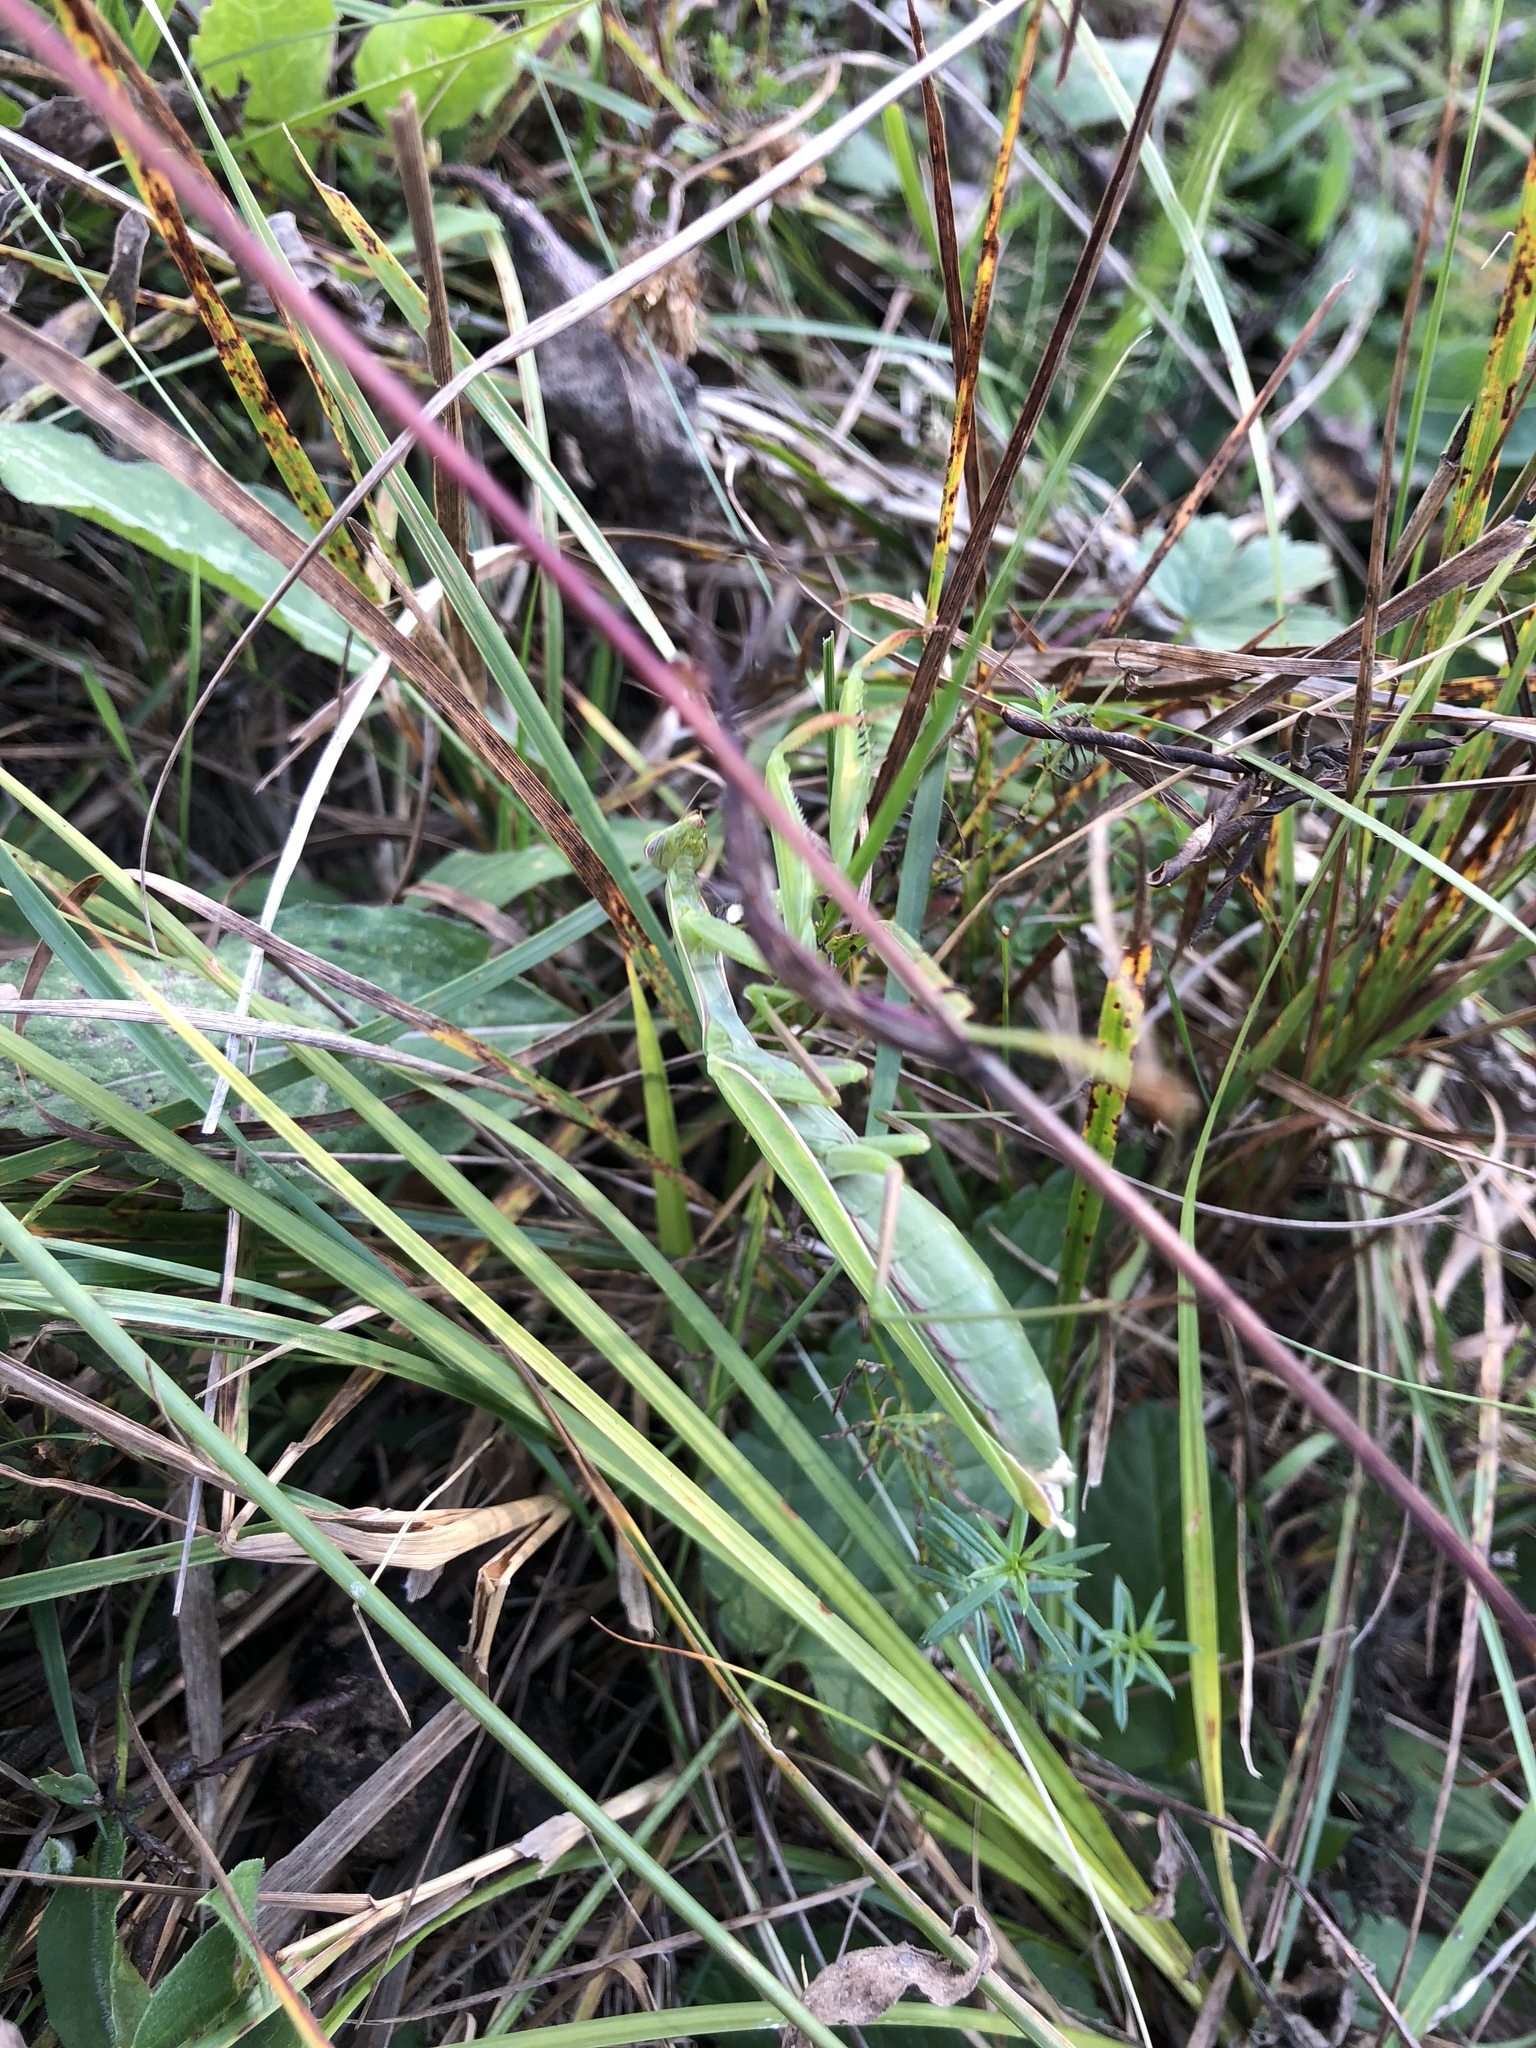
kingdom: Animalia
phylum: Arthropoda
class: Insecta
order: Mantodea
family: Mantidae
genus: Mantis
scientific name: Mantis religiosa
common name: Praying mantis
